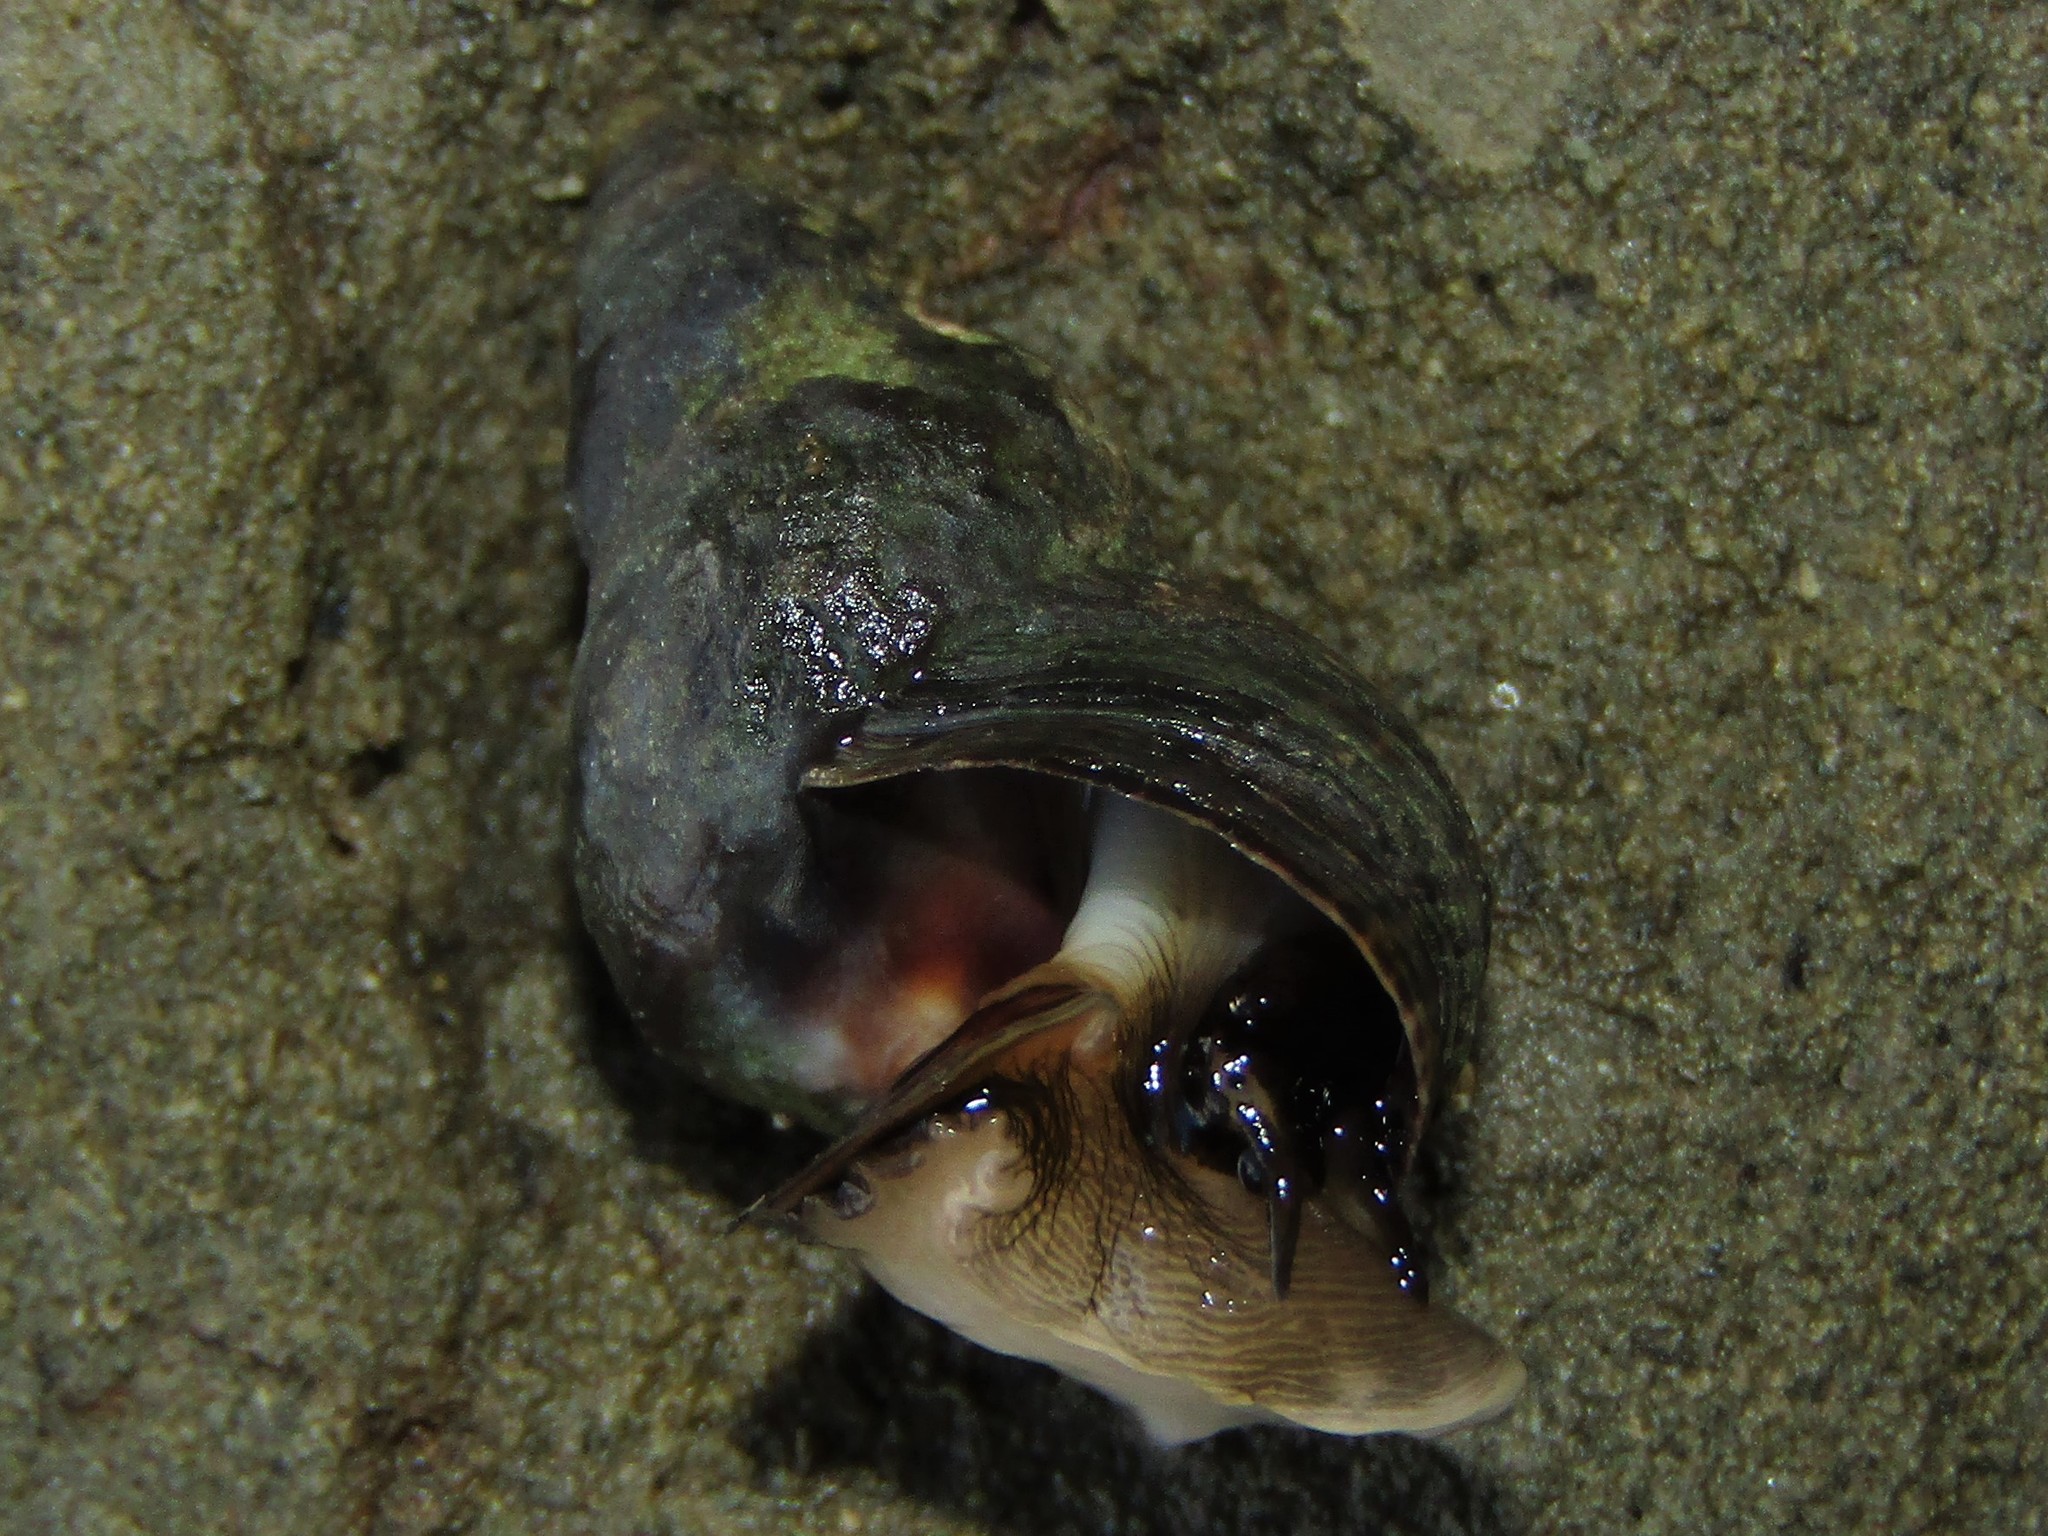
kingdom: Animalia
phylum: Mollusca
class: Gastropoda
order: Littorinimorpha
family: Littorinidae
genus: Austrolittorina
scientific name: Austrolittorina cincta
